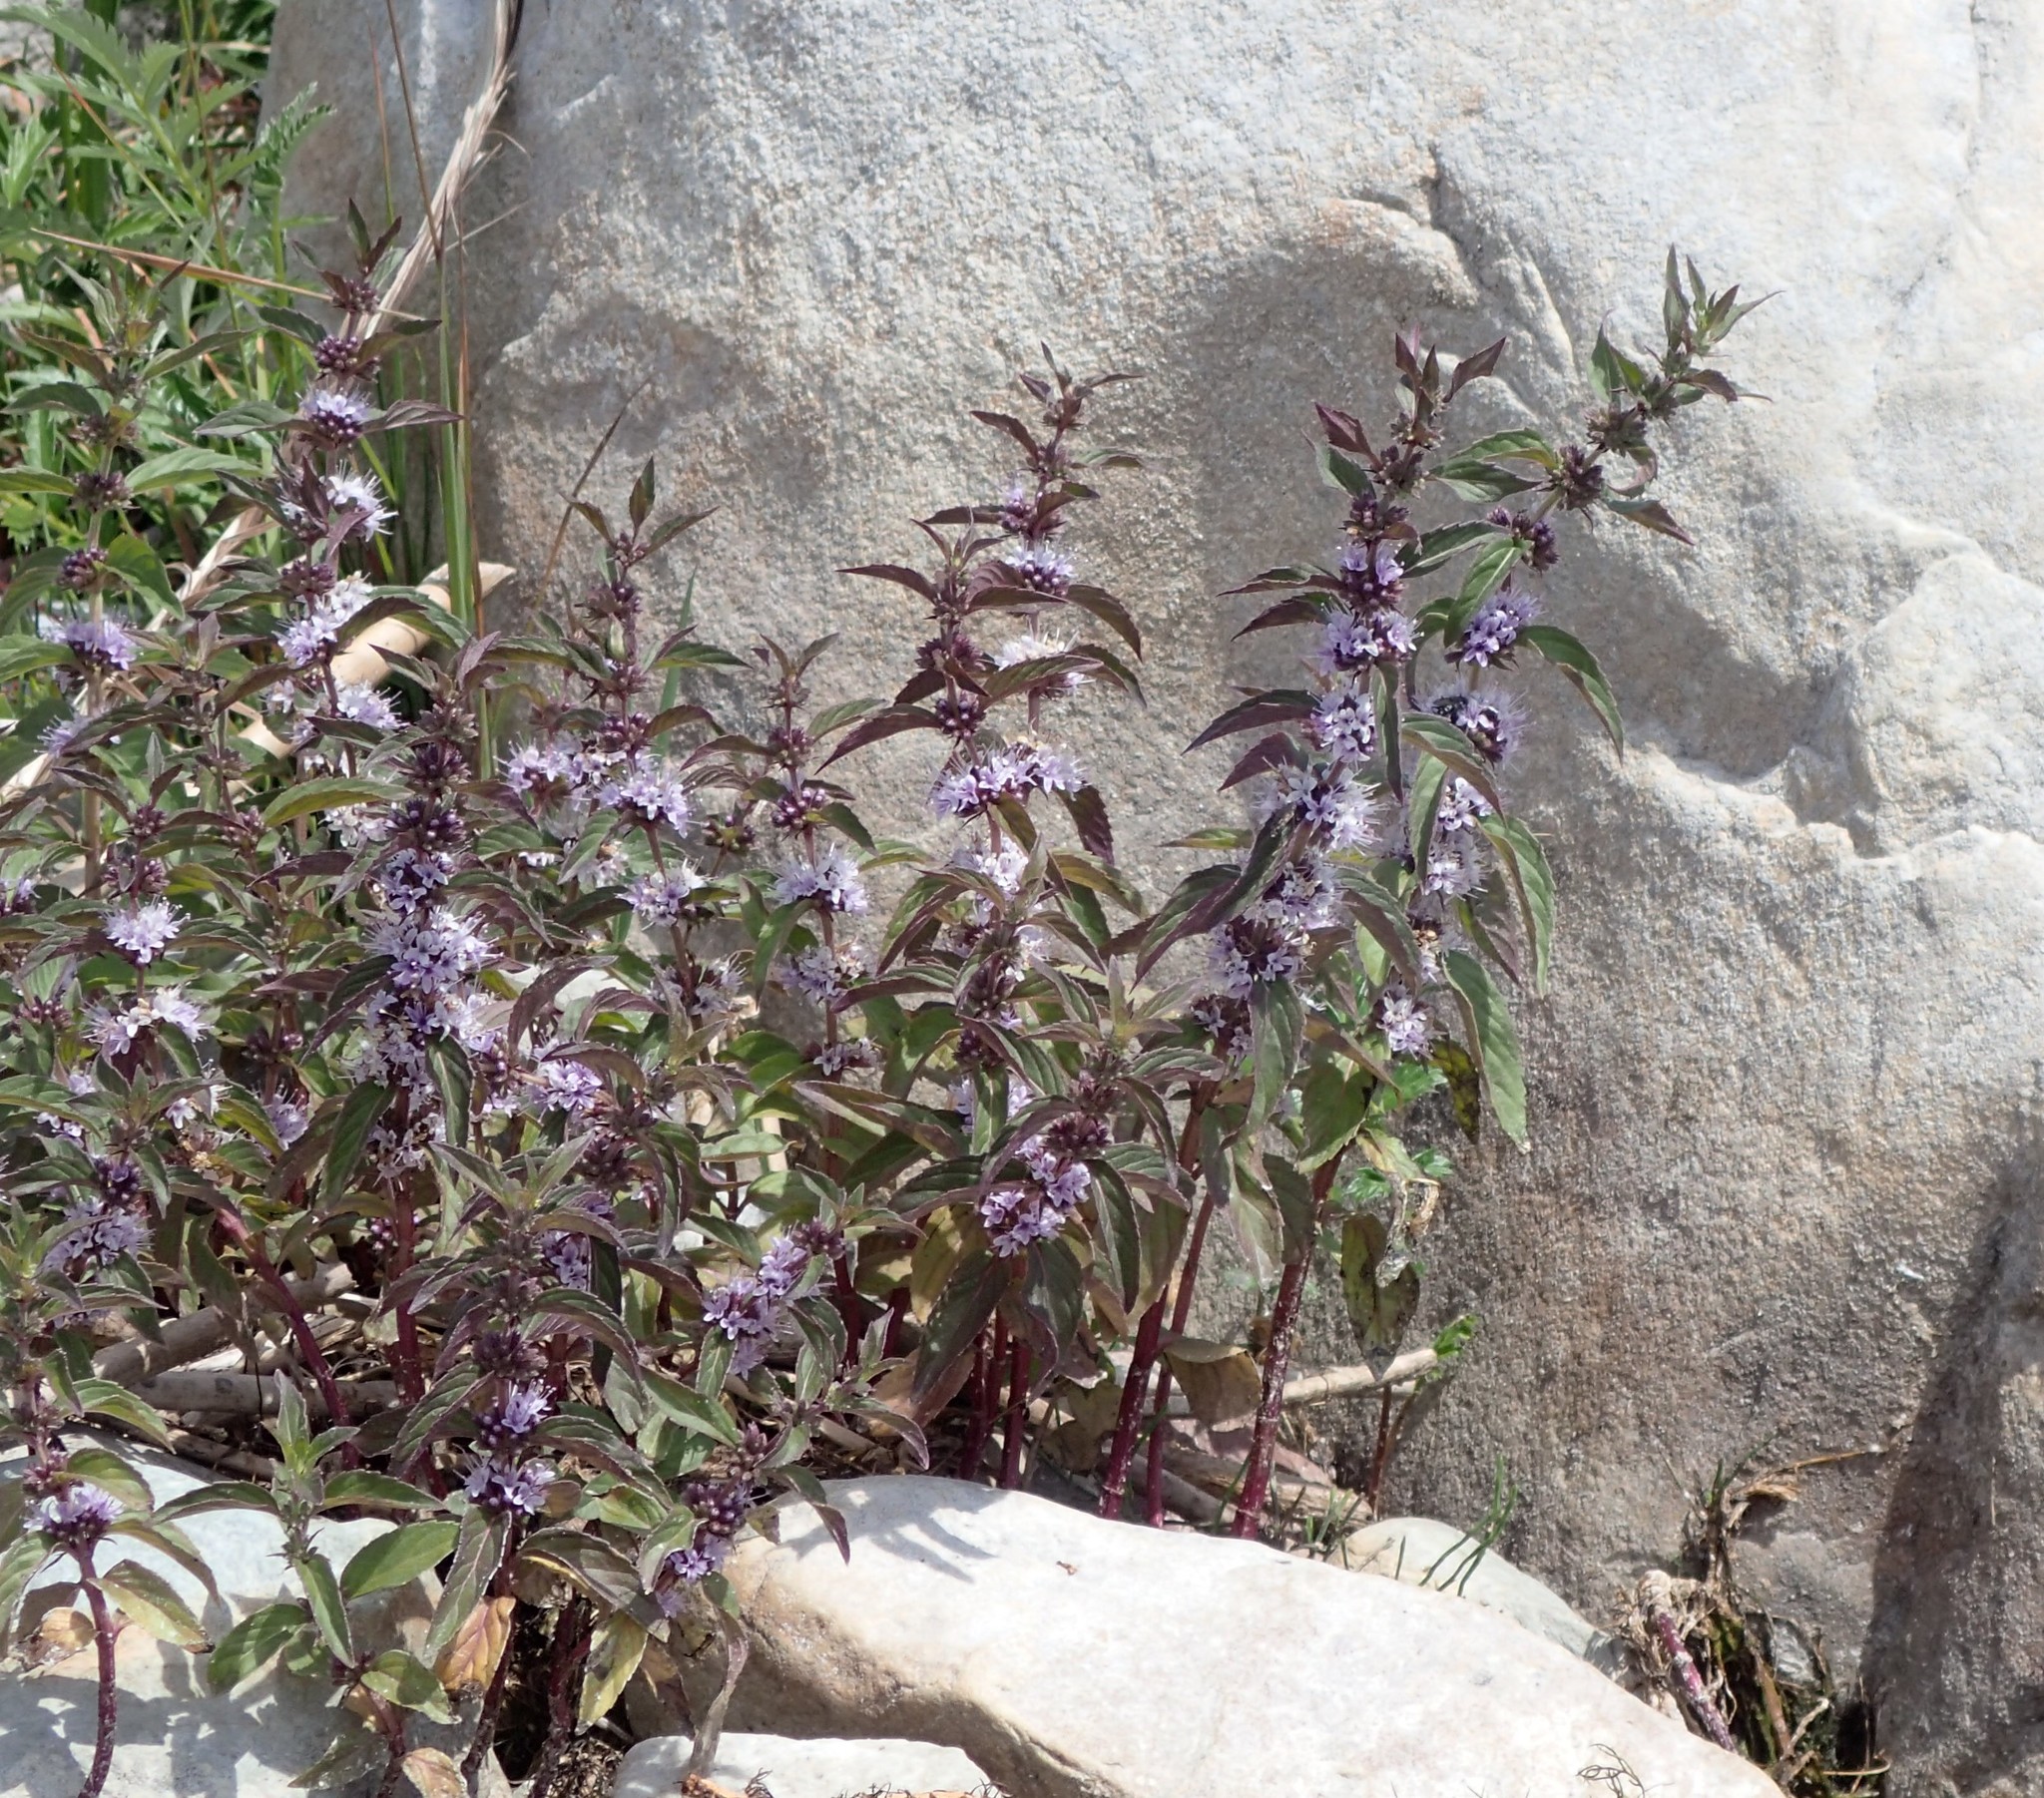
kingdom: Plantae
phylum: Tracheophyta
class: Magnoliopsida
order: Lamiales
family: Lamiaceae
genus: Mentha
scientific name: Mentha canadensis
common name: American corn mint
